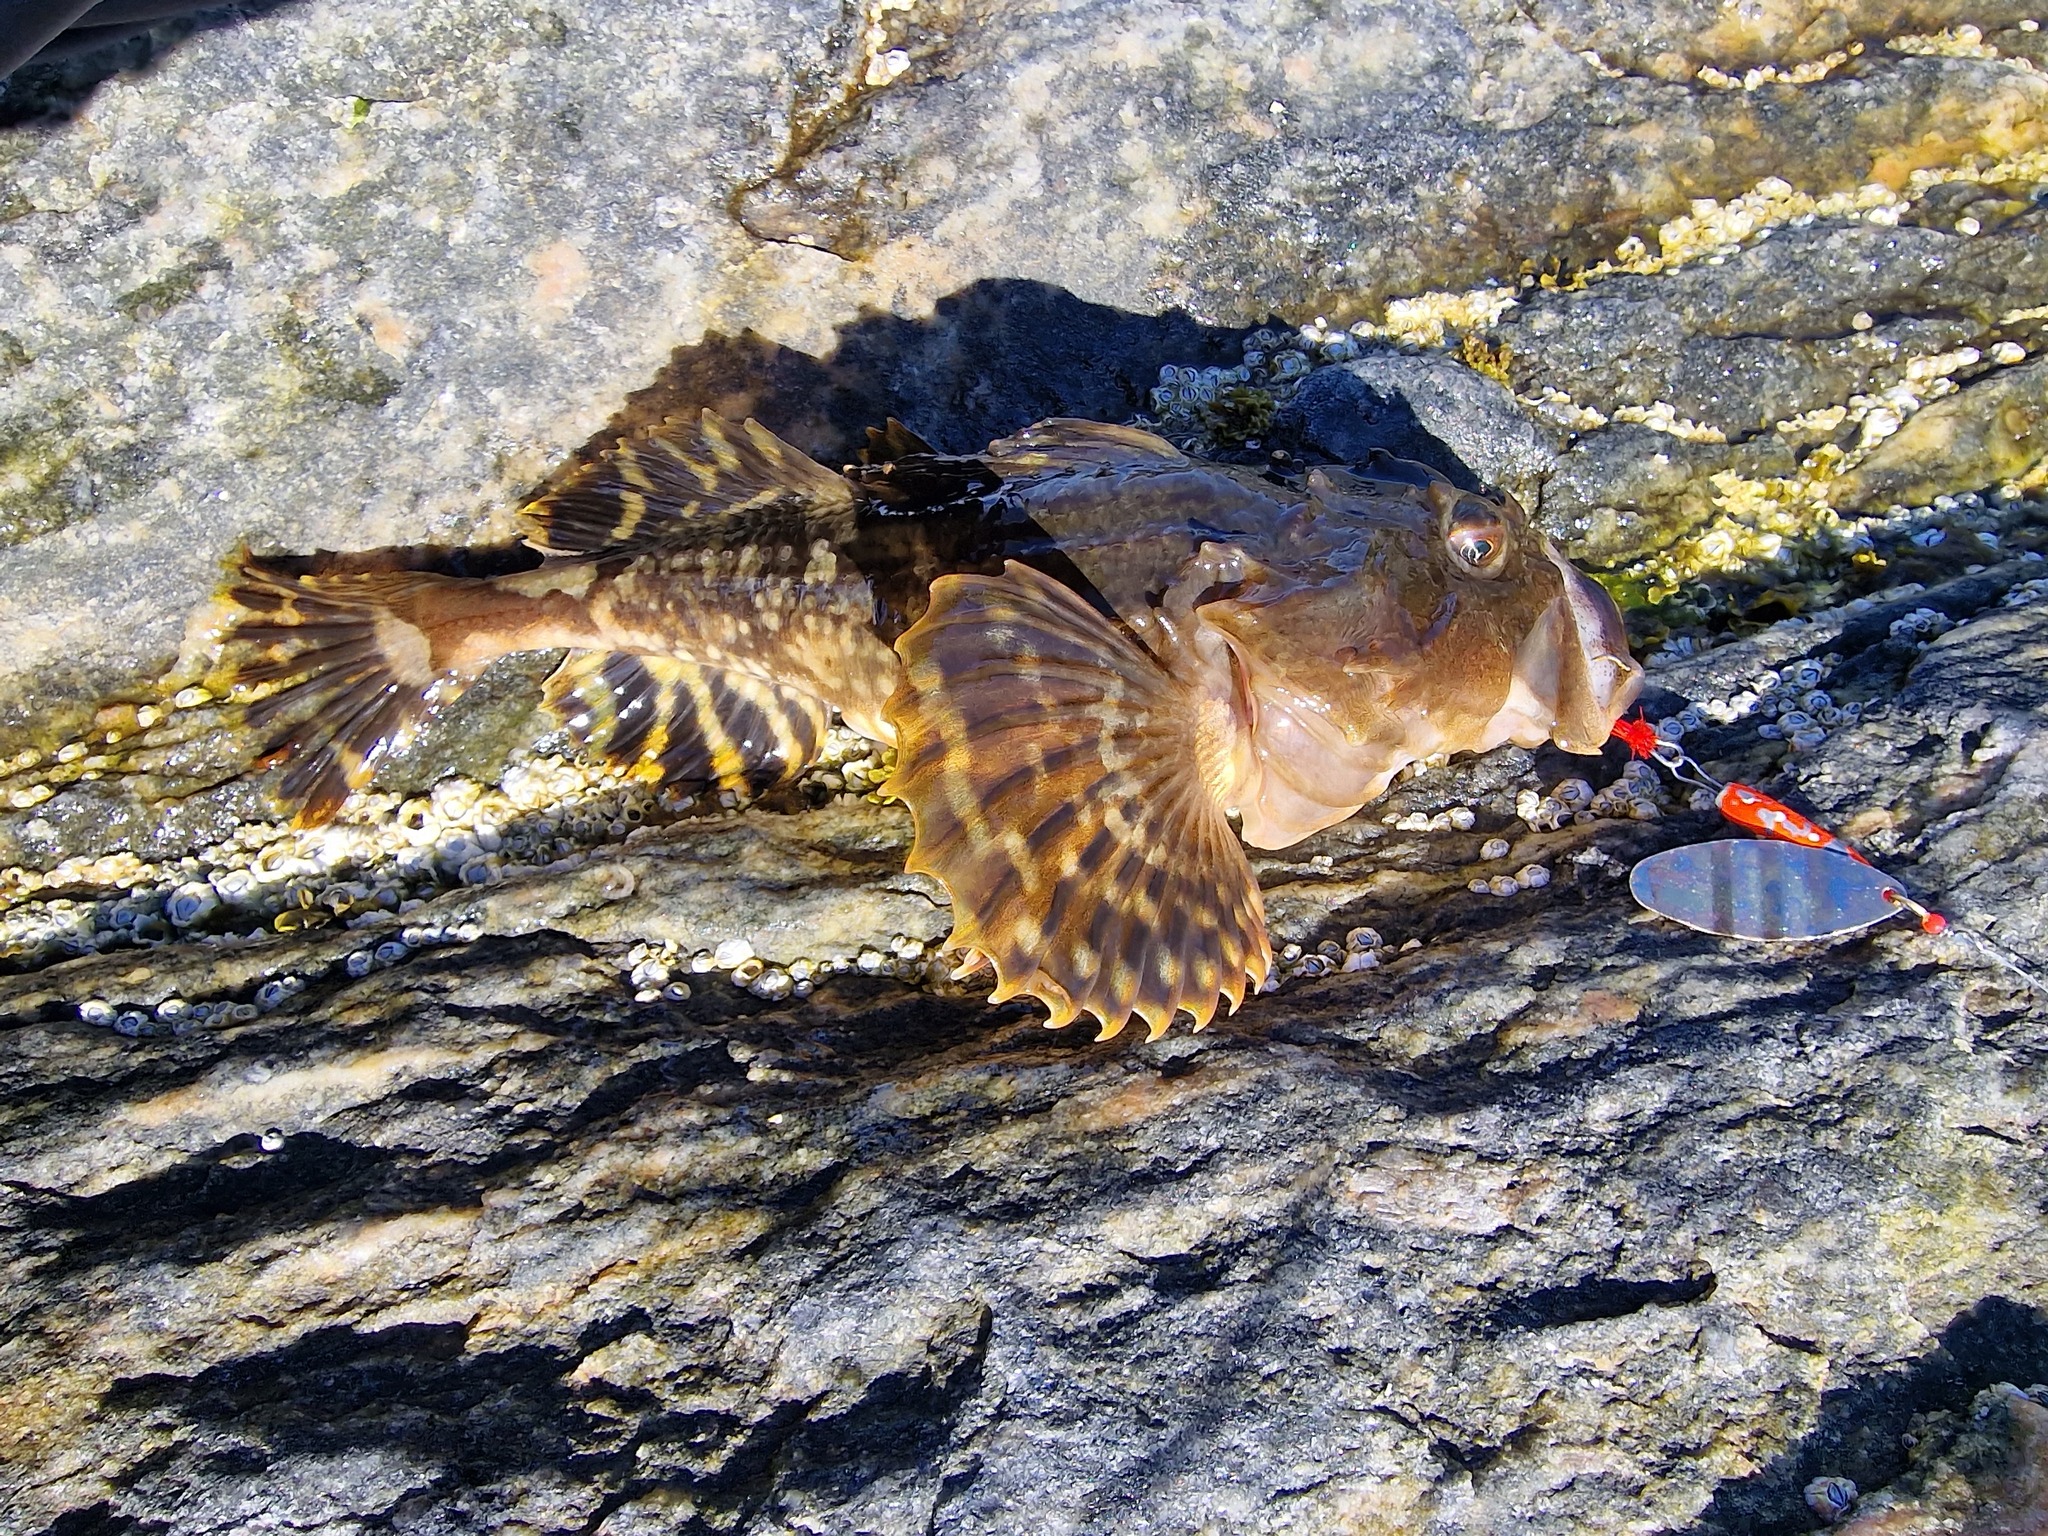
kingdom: Animalia
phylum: Chordata
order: Scorpaeniformes
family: Cottidae
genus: Myoxocephalus
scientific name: Myoxocephalus scorpius
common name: Shorthorn sculpin
